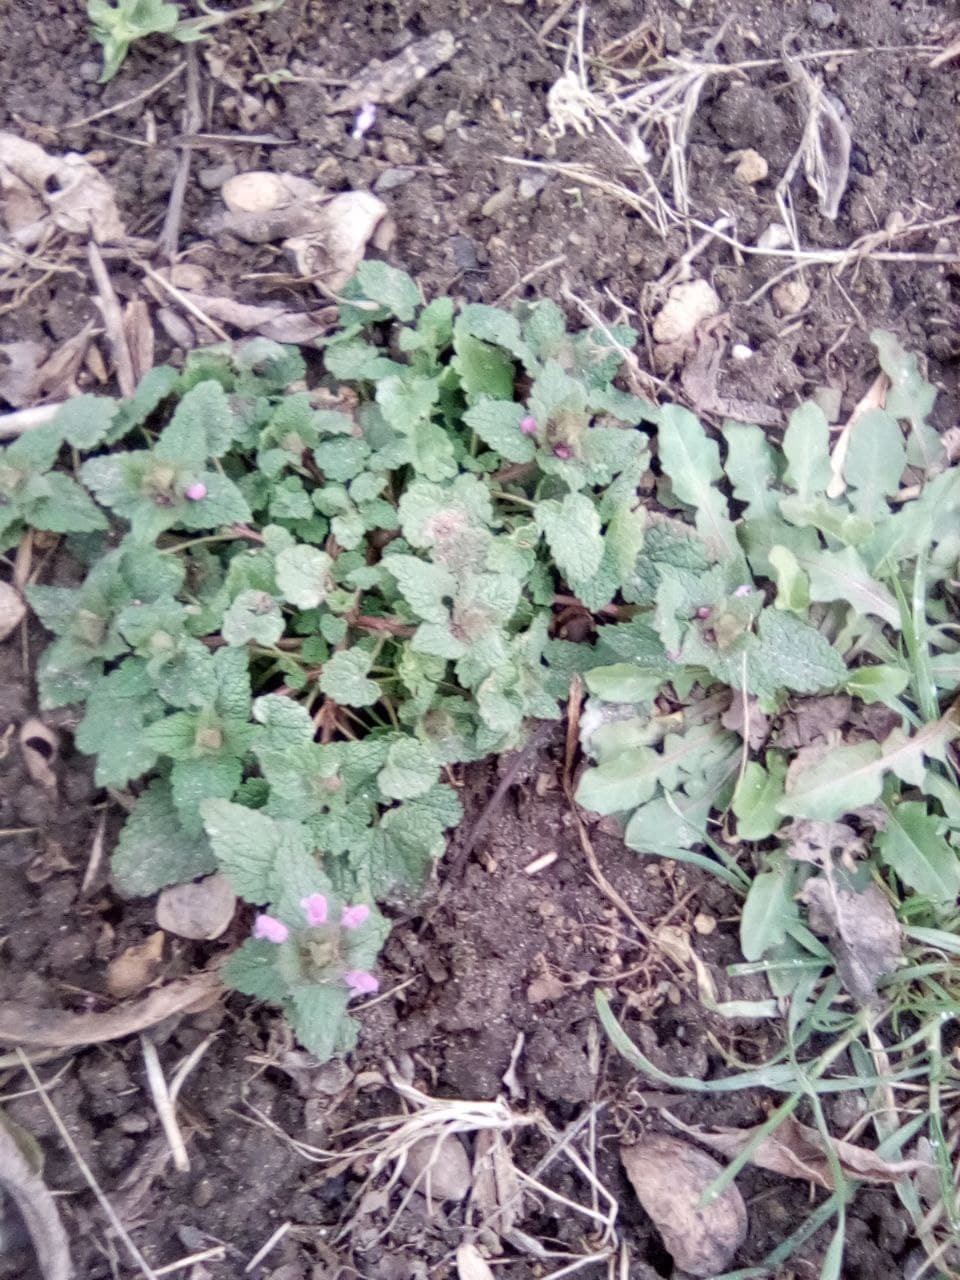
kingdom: Plantae
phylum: Tracheophyta
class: Magnoliopsida
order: Lamiales
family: Lamiaceae
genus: Lamium
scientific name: Lamium purpureum
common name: Red dead-nettle
